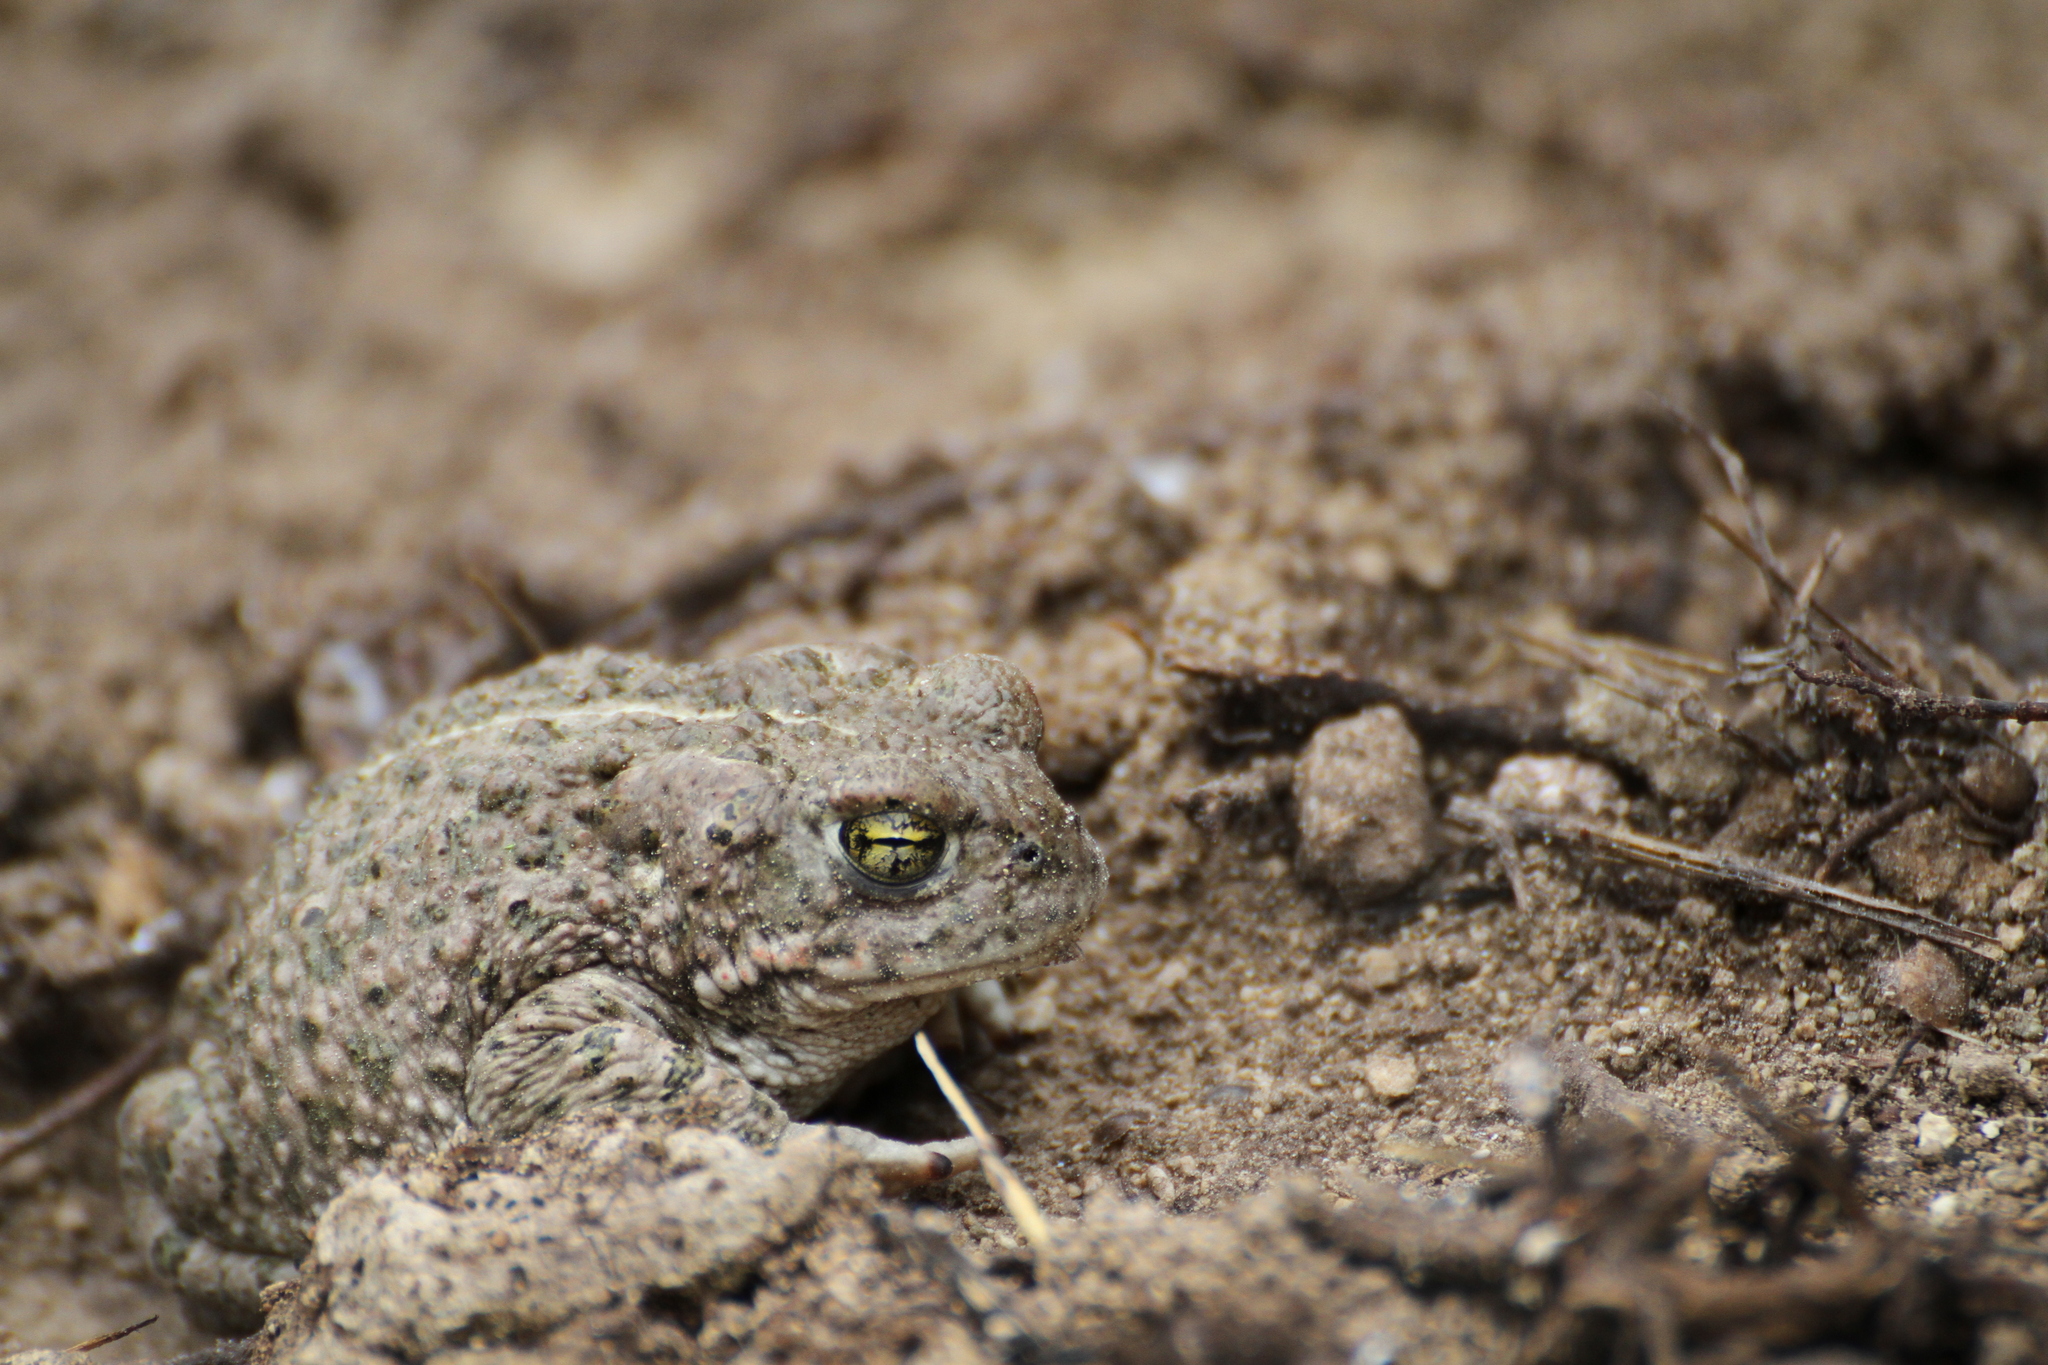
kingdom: Animalia
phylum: Chordata
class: Amphibia
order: Anura
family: Bufonidae
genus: Epidalea
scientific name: Epidalea calamita
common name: Natterjack toad
